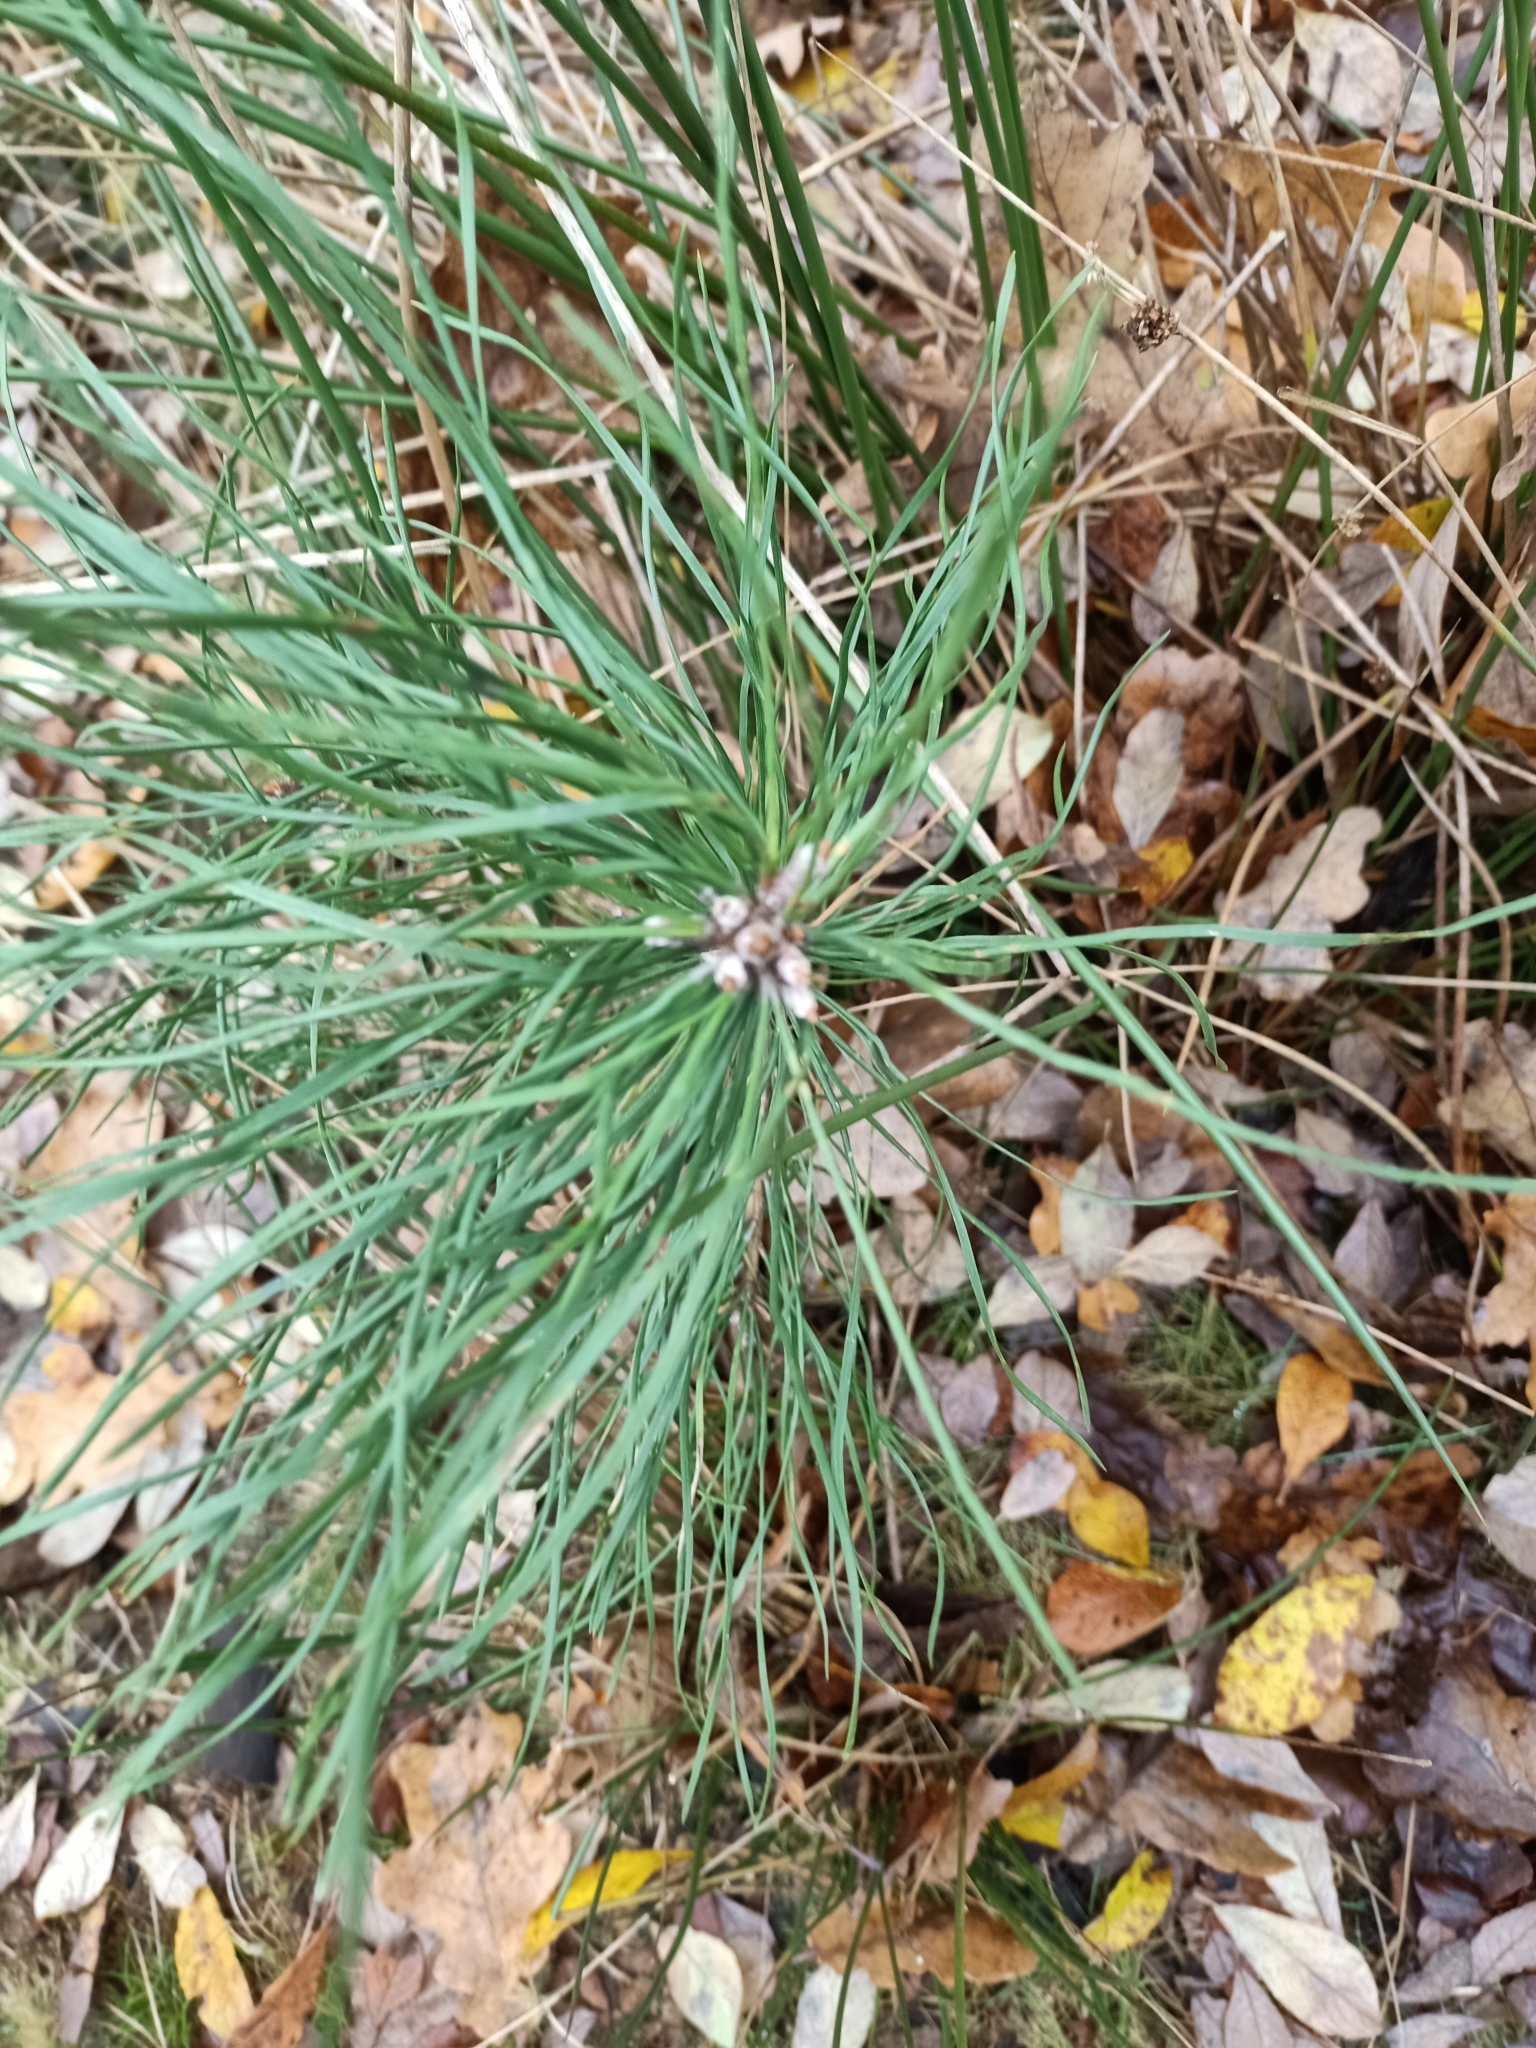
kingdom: Plantae
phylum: Tracheophyta
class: Pinopsida
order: Pinales
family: Pinaceae
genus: Pinus
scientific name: Pinus sylvestris
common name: Scots pine
